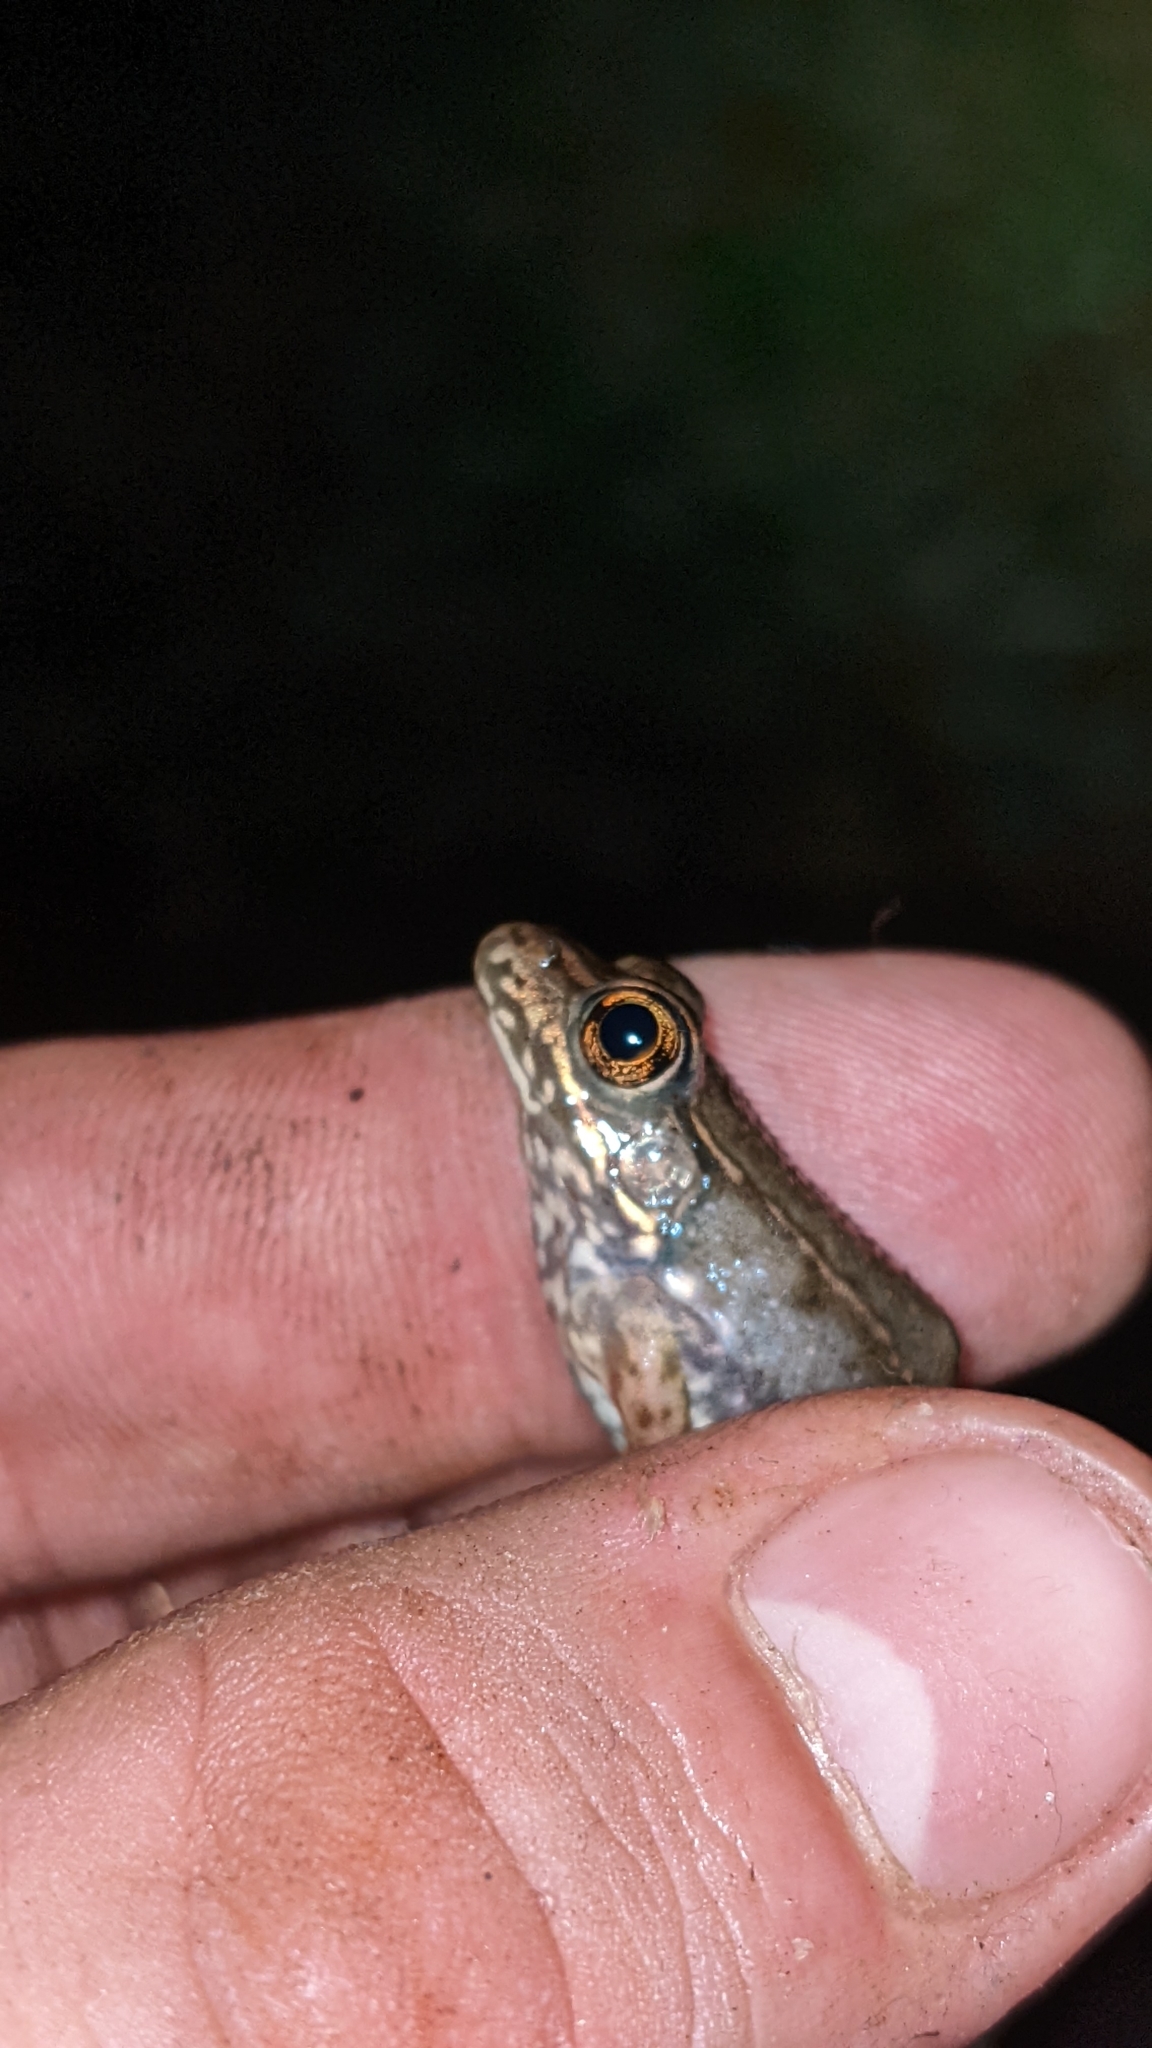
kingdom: Animalia
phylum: Chordata
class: Amphibia
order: Anura
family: Ranidae
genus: Lithobates
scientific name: Lithobates clamitans
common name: Green frog
